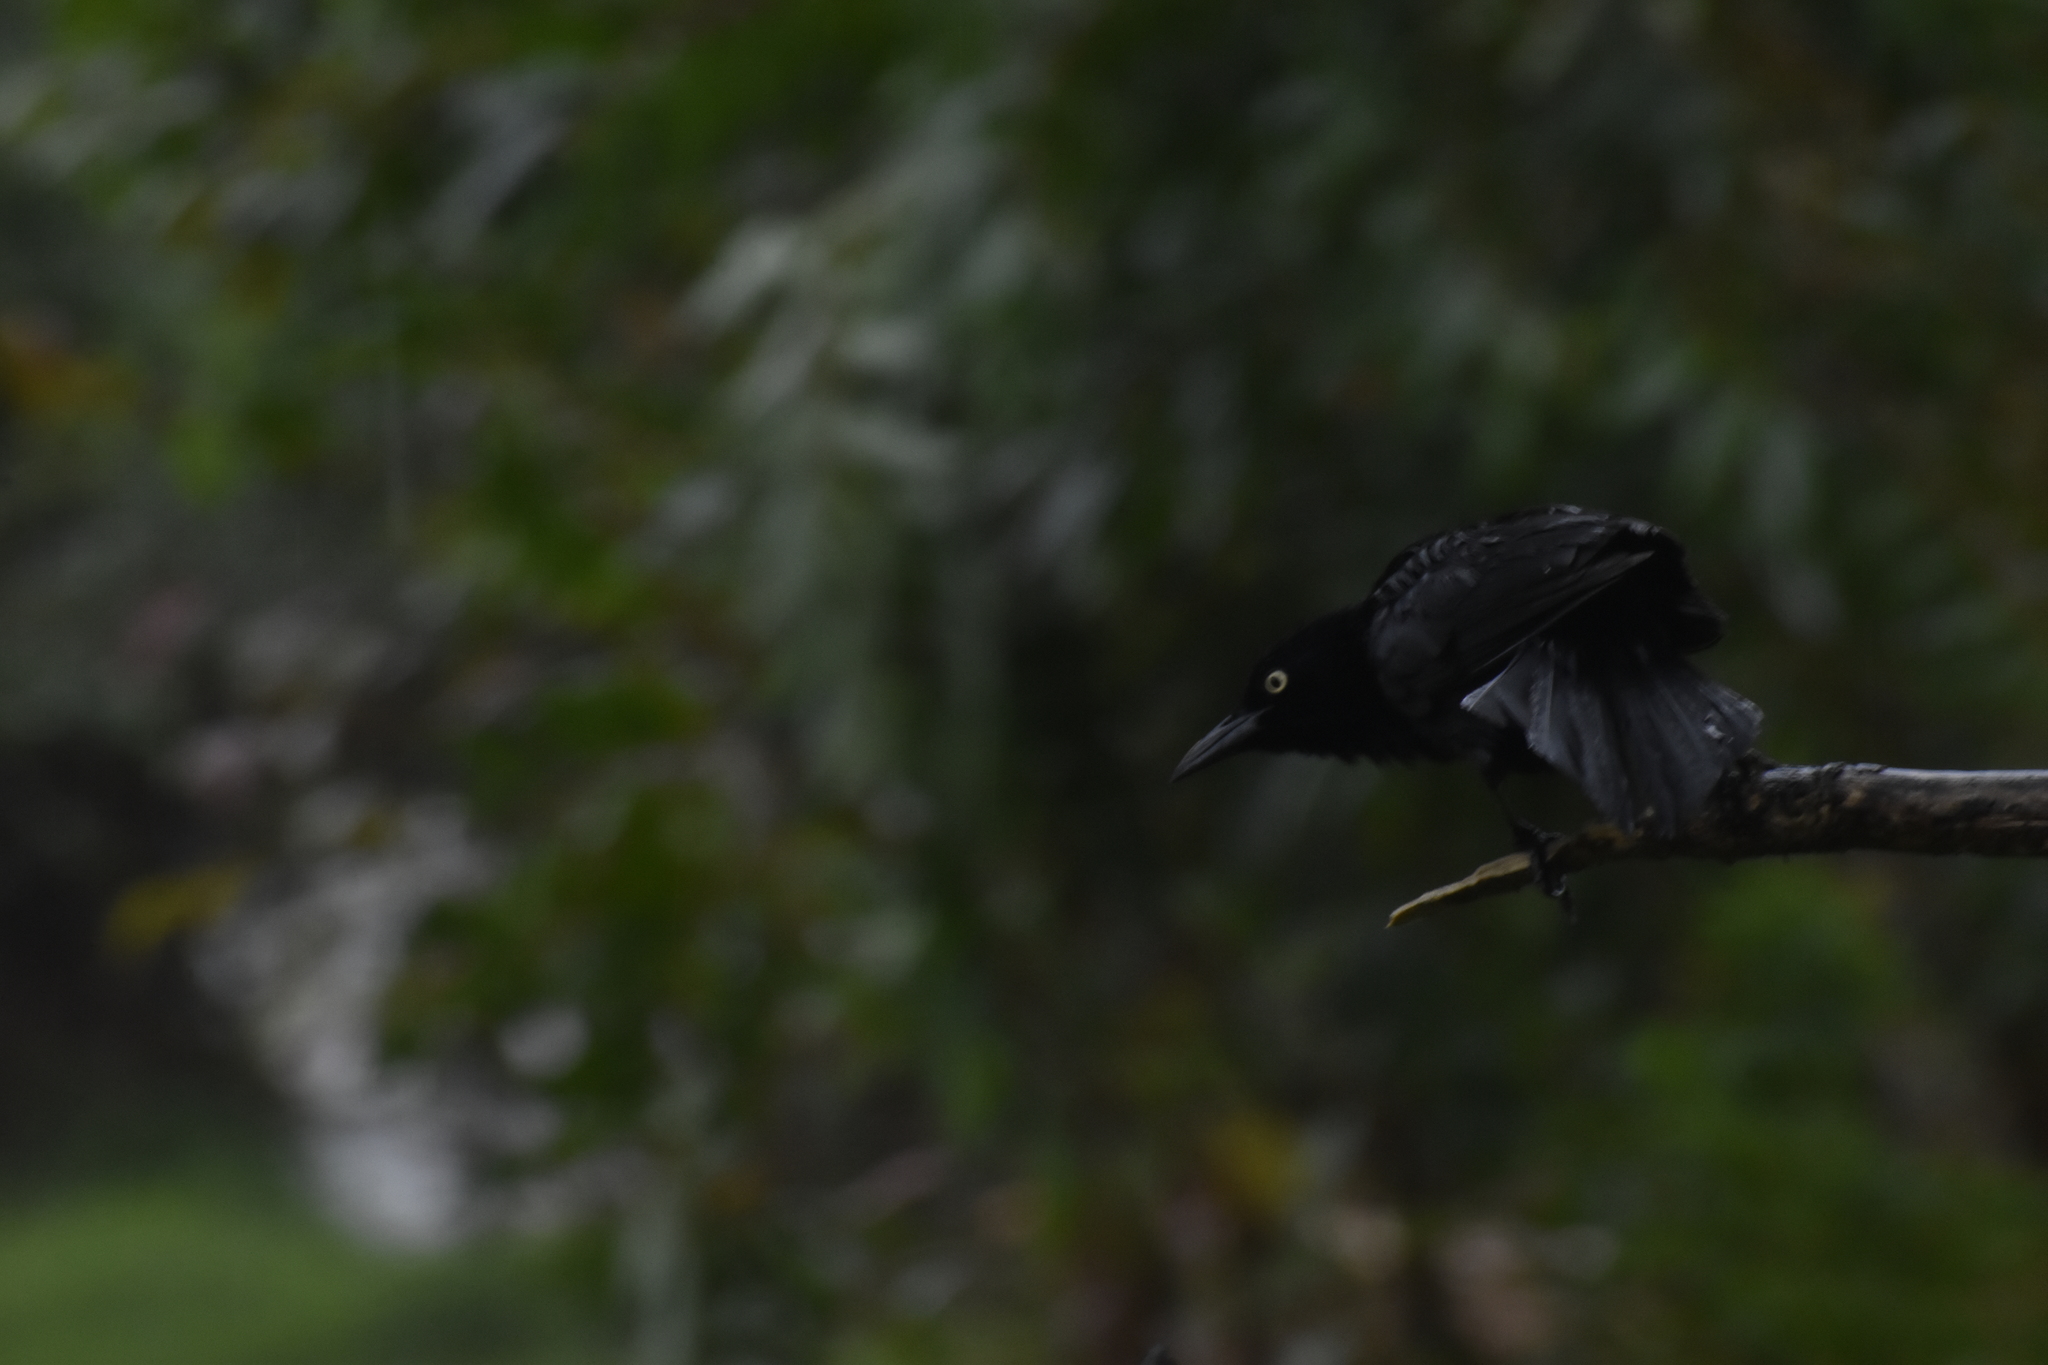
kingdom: Animalia
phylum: Chordata
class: Aves
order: Passeriformes
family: Icteridae
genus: Quiscalus
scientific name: Quiscalus lugubris
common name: Carib grackle
